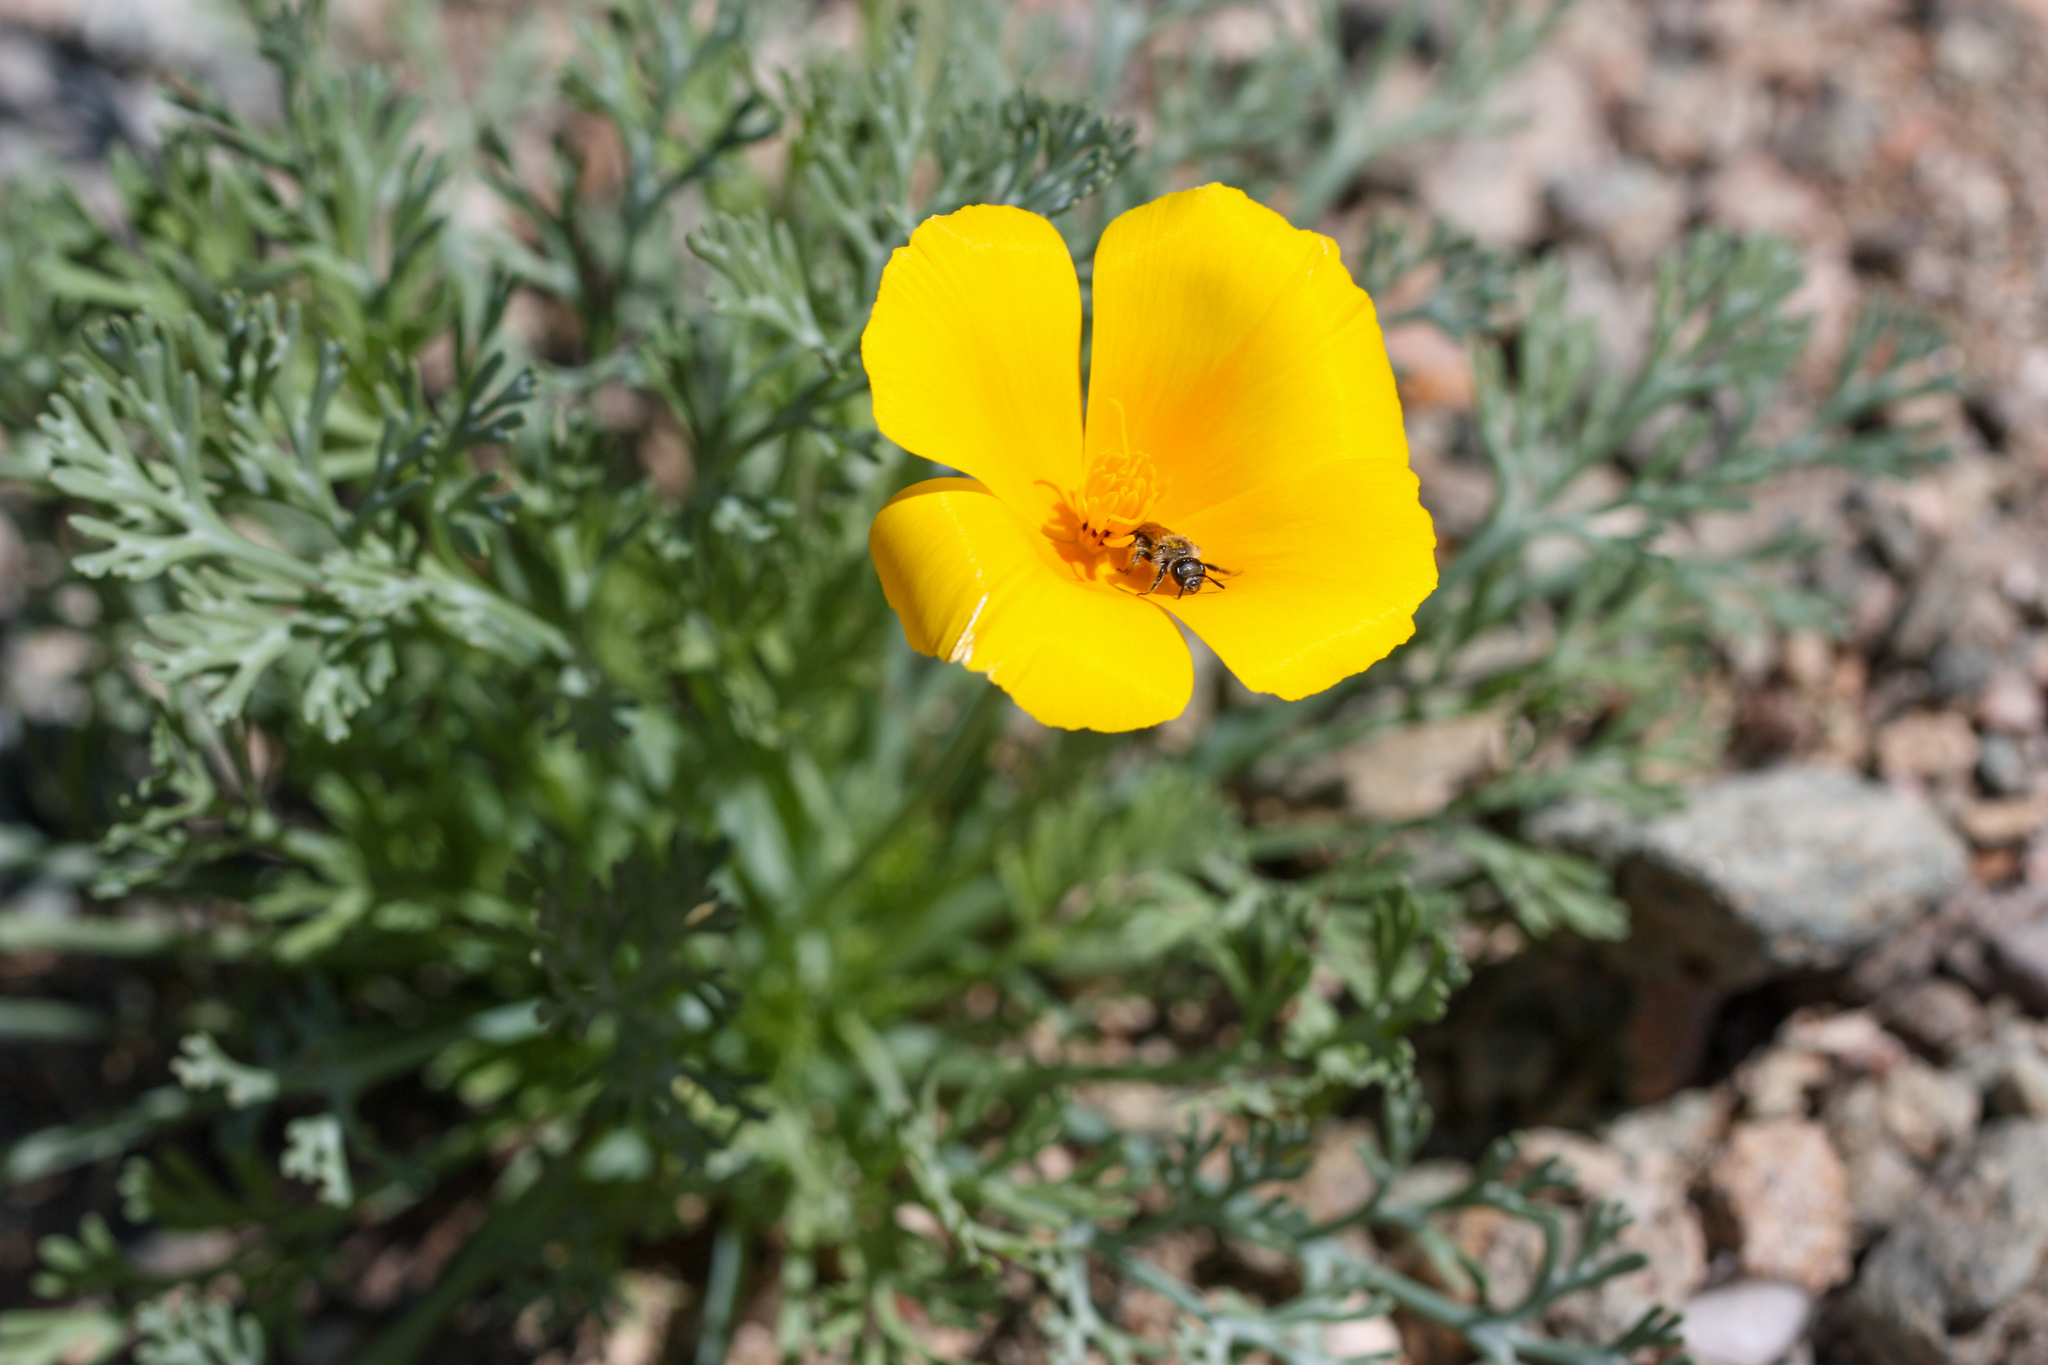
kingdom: Plantae
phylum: Tracheophyta
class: Magnoliopsida
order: Ranunculales
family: Papaveraceae
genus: Eschscholzia
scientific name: Eschscholzia californica
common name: California poppy
